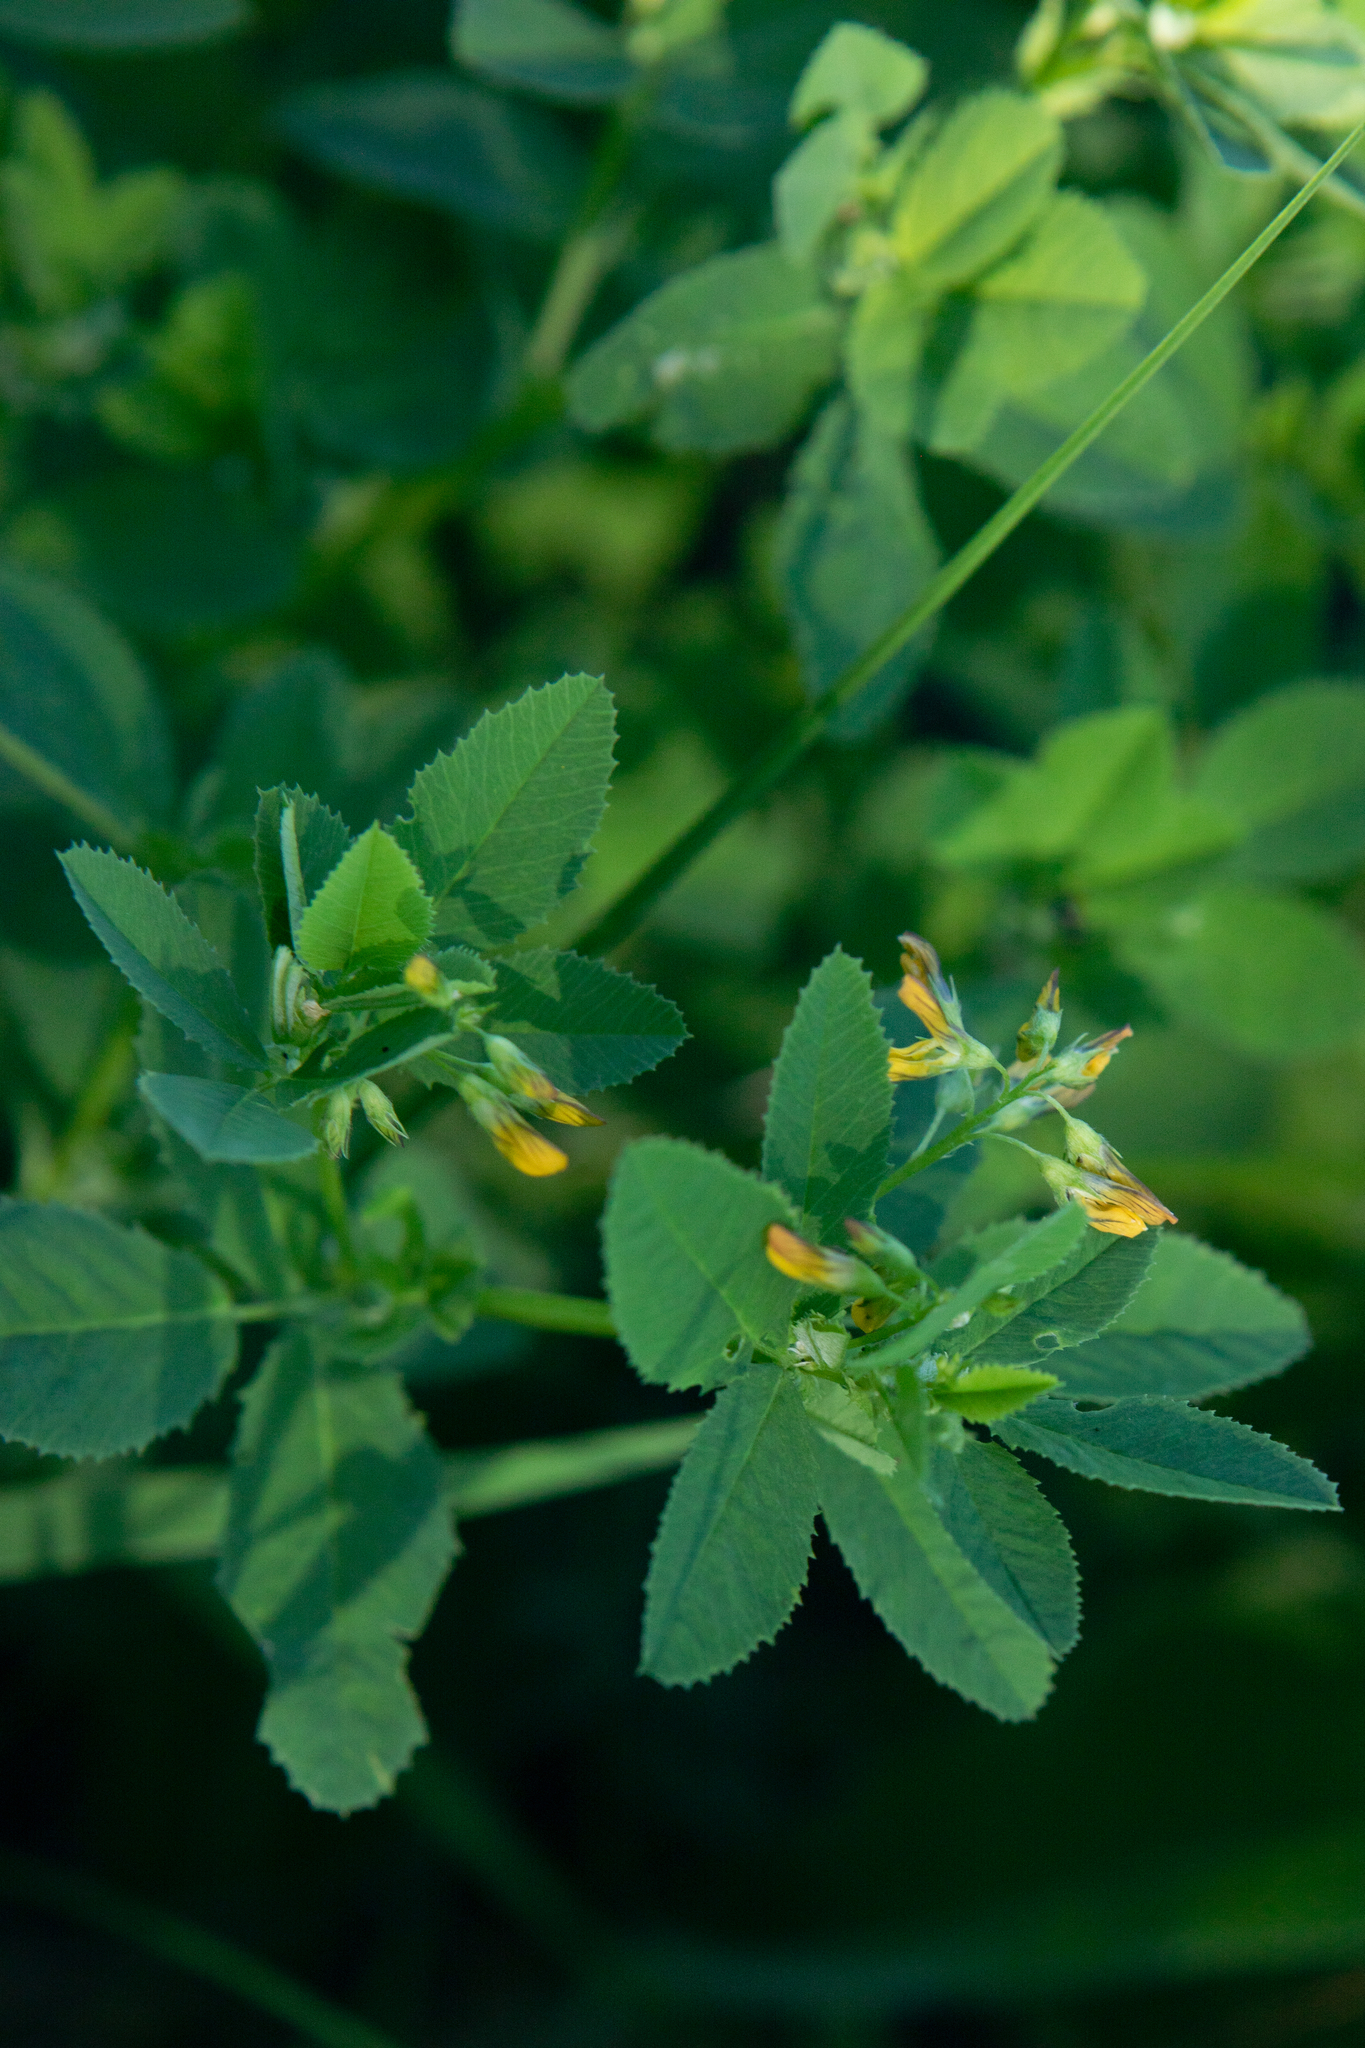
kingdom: Plantae
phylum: Tracheophyta
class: Magnoliopsida
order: Fabales
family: Fabaceae
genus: Medicago
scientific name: Medicago platycarpos
